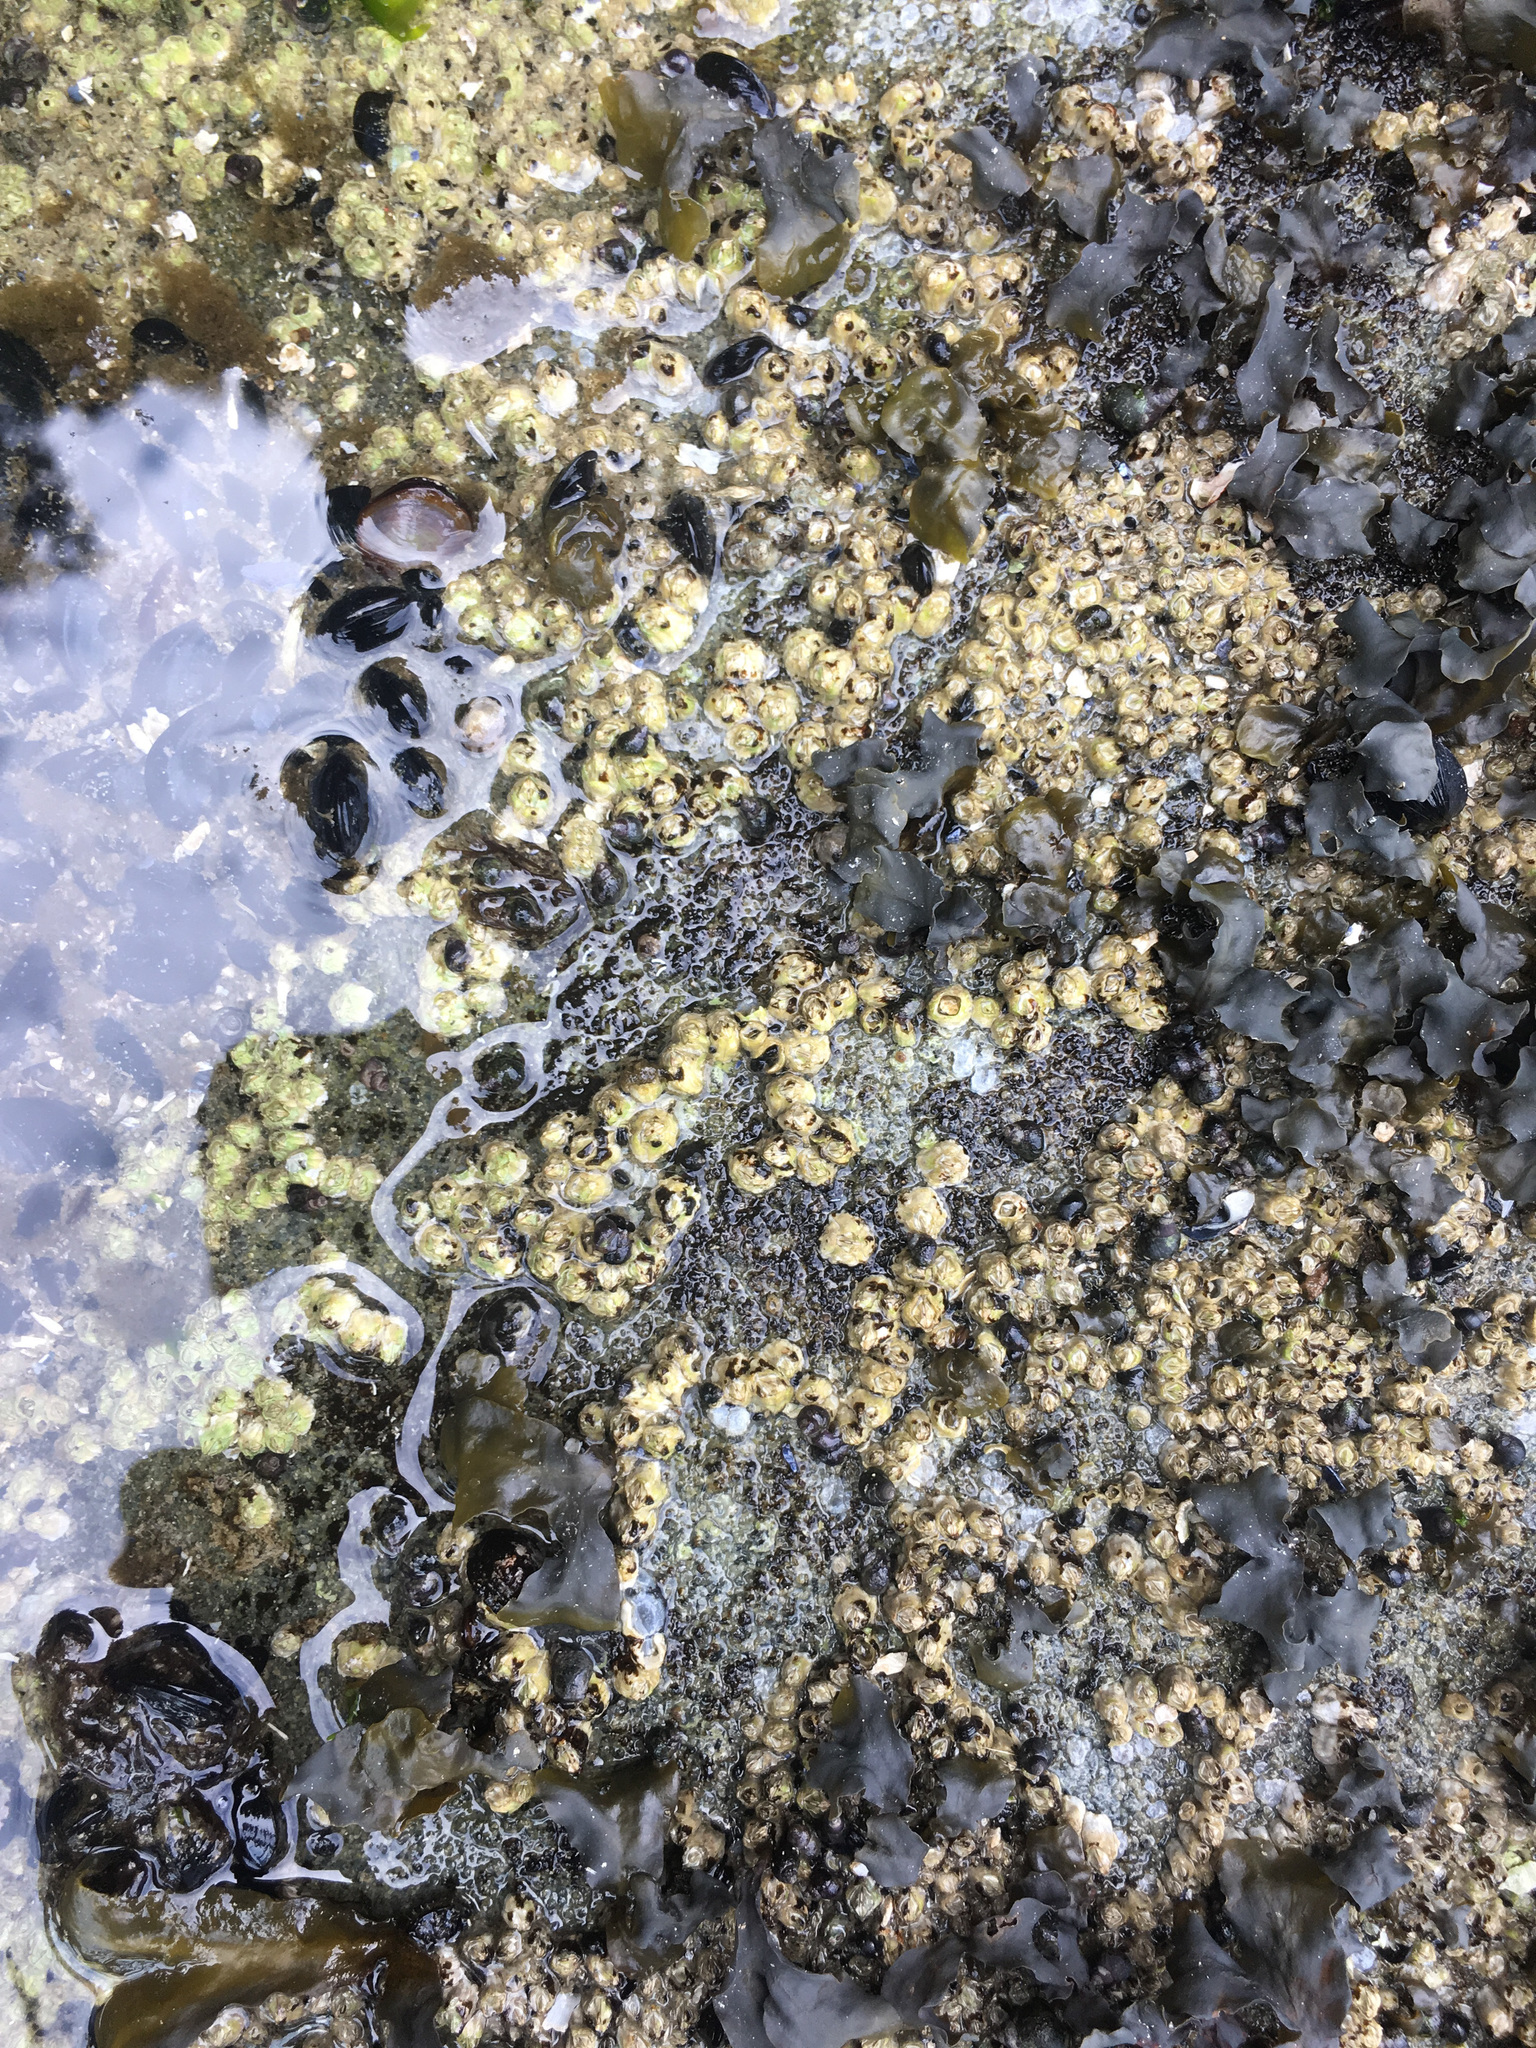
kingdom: Animalia
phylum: Arthropoda
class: Maxillopoda
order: Sessilia
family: Balanidae
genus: Balanus
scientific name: Balanus glandula
